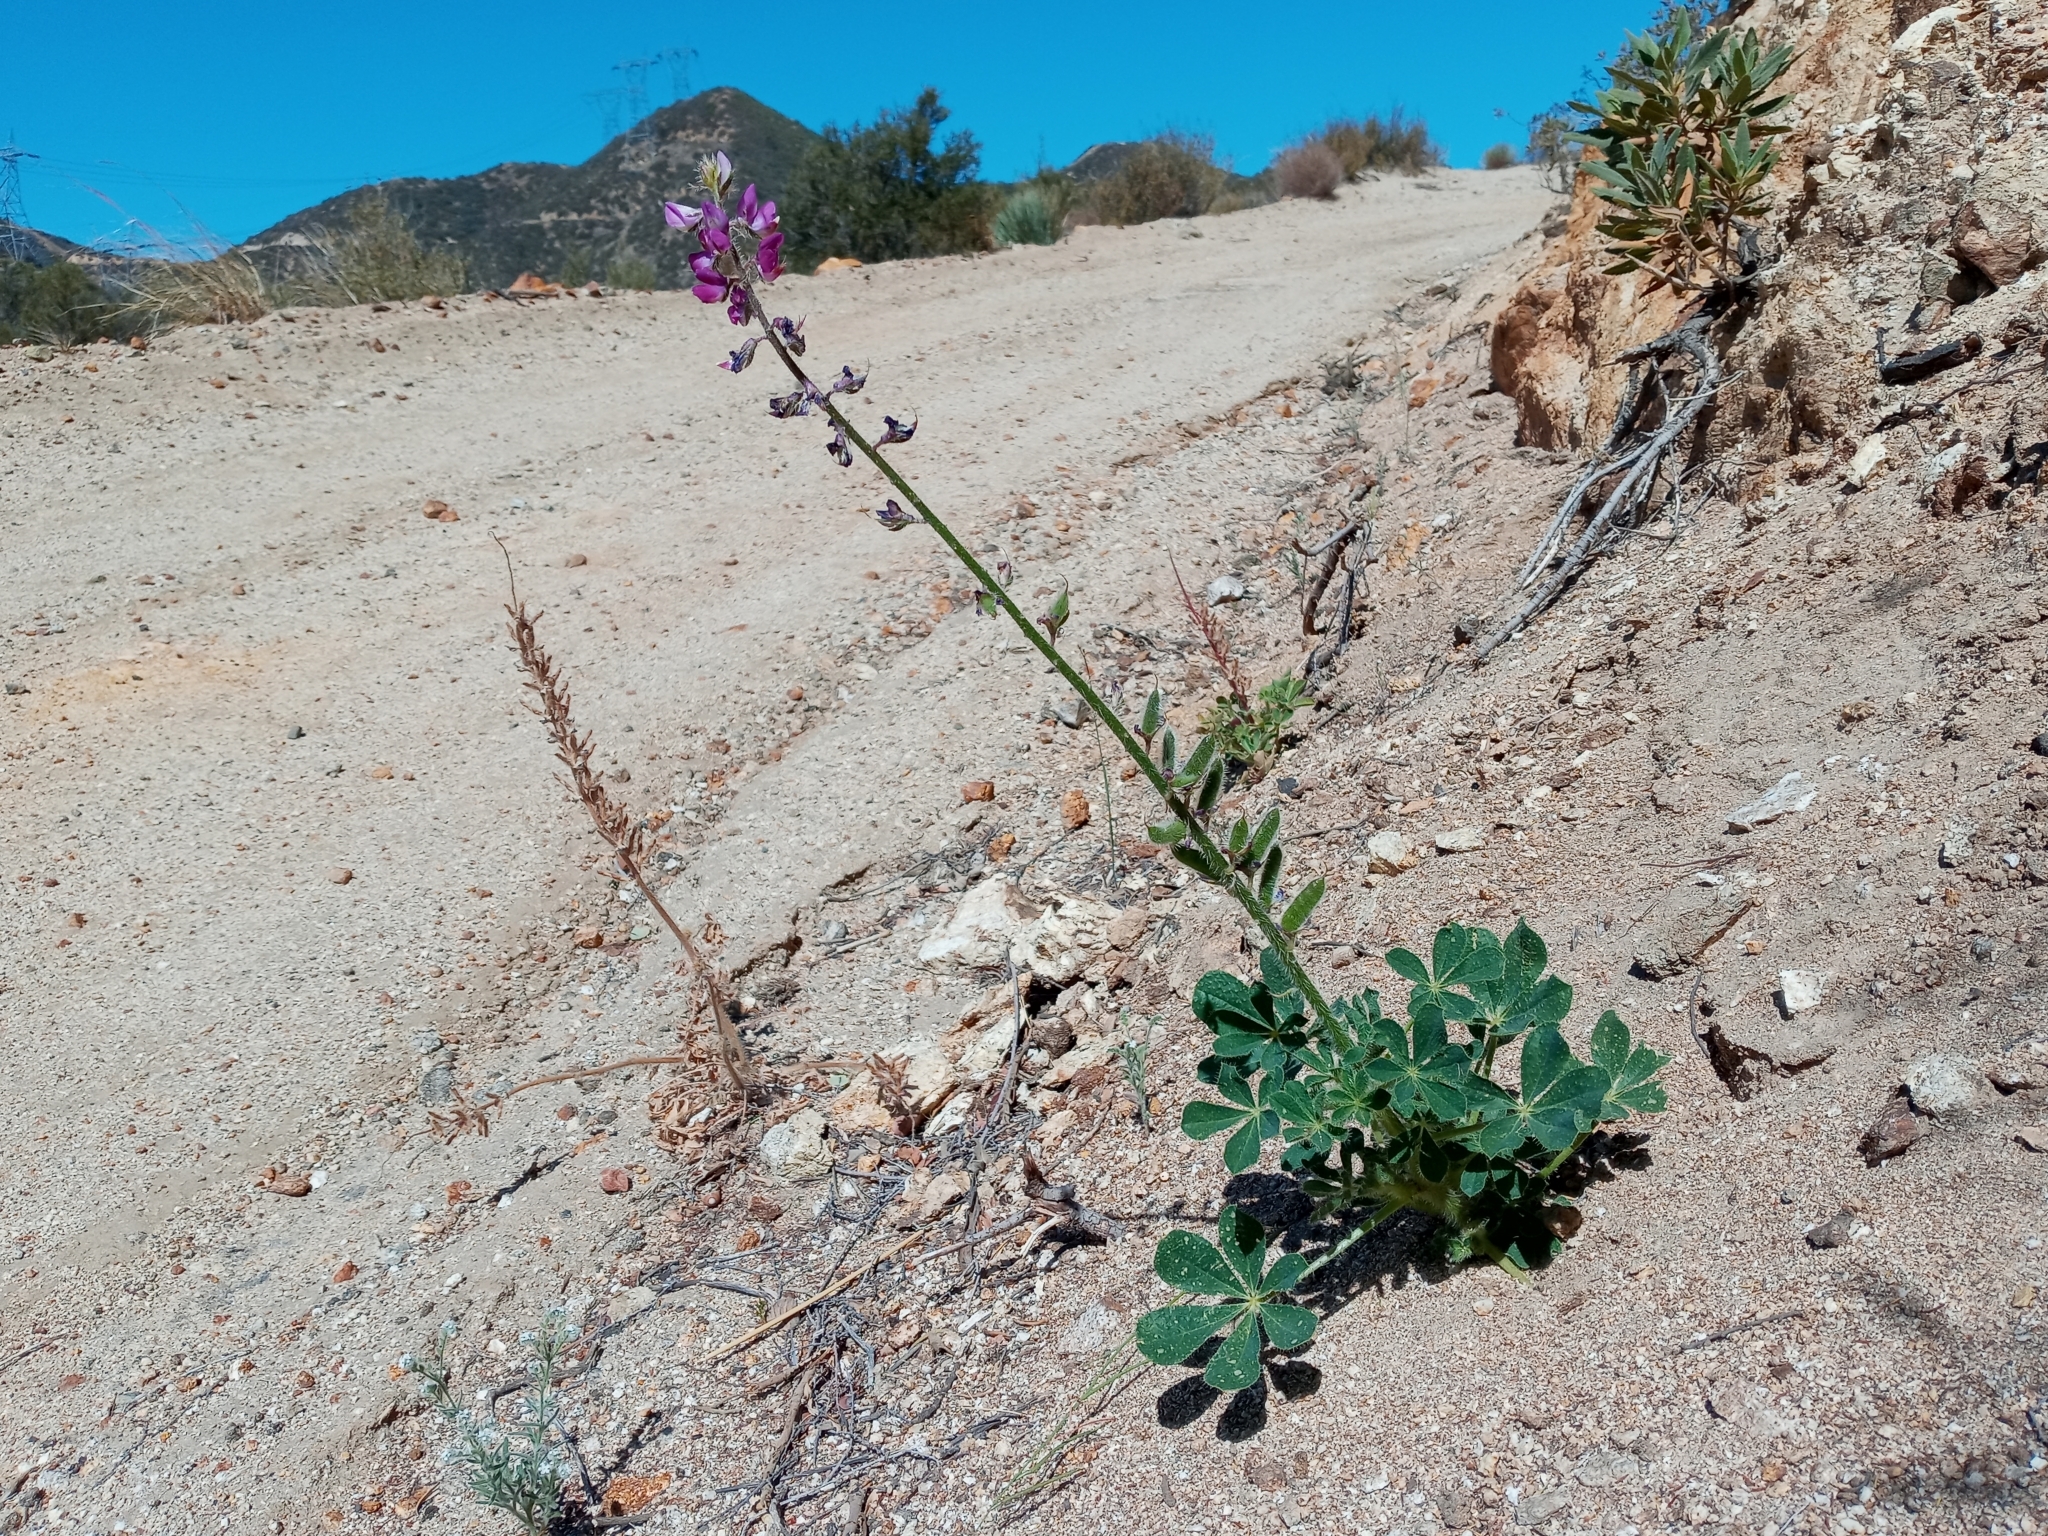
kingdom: Plantae
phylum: Tracheophyta
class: Magnoliopsida
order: Fabales
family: Fabaceae
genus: Lupinus
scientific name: Lupinus hirsutissimus
